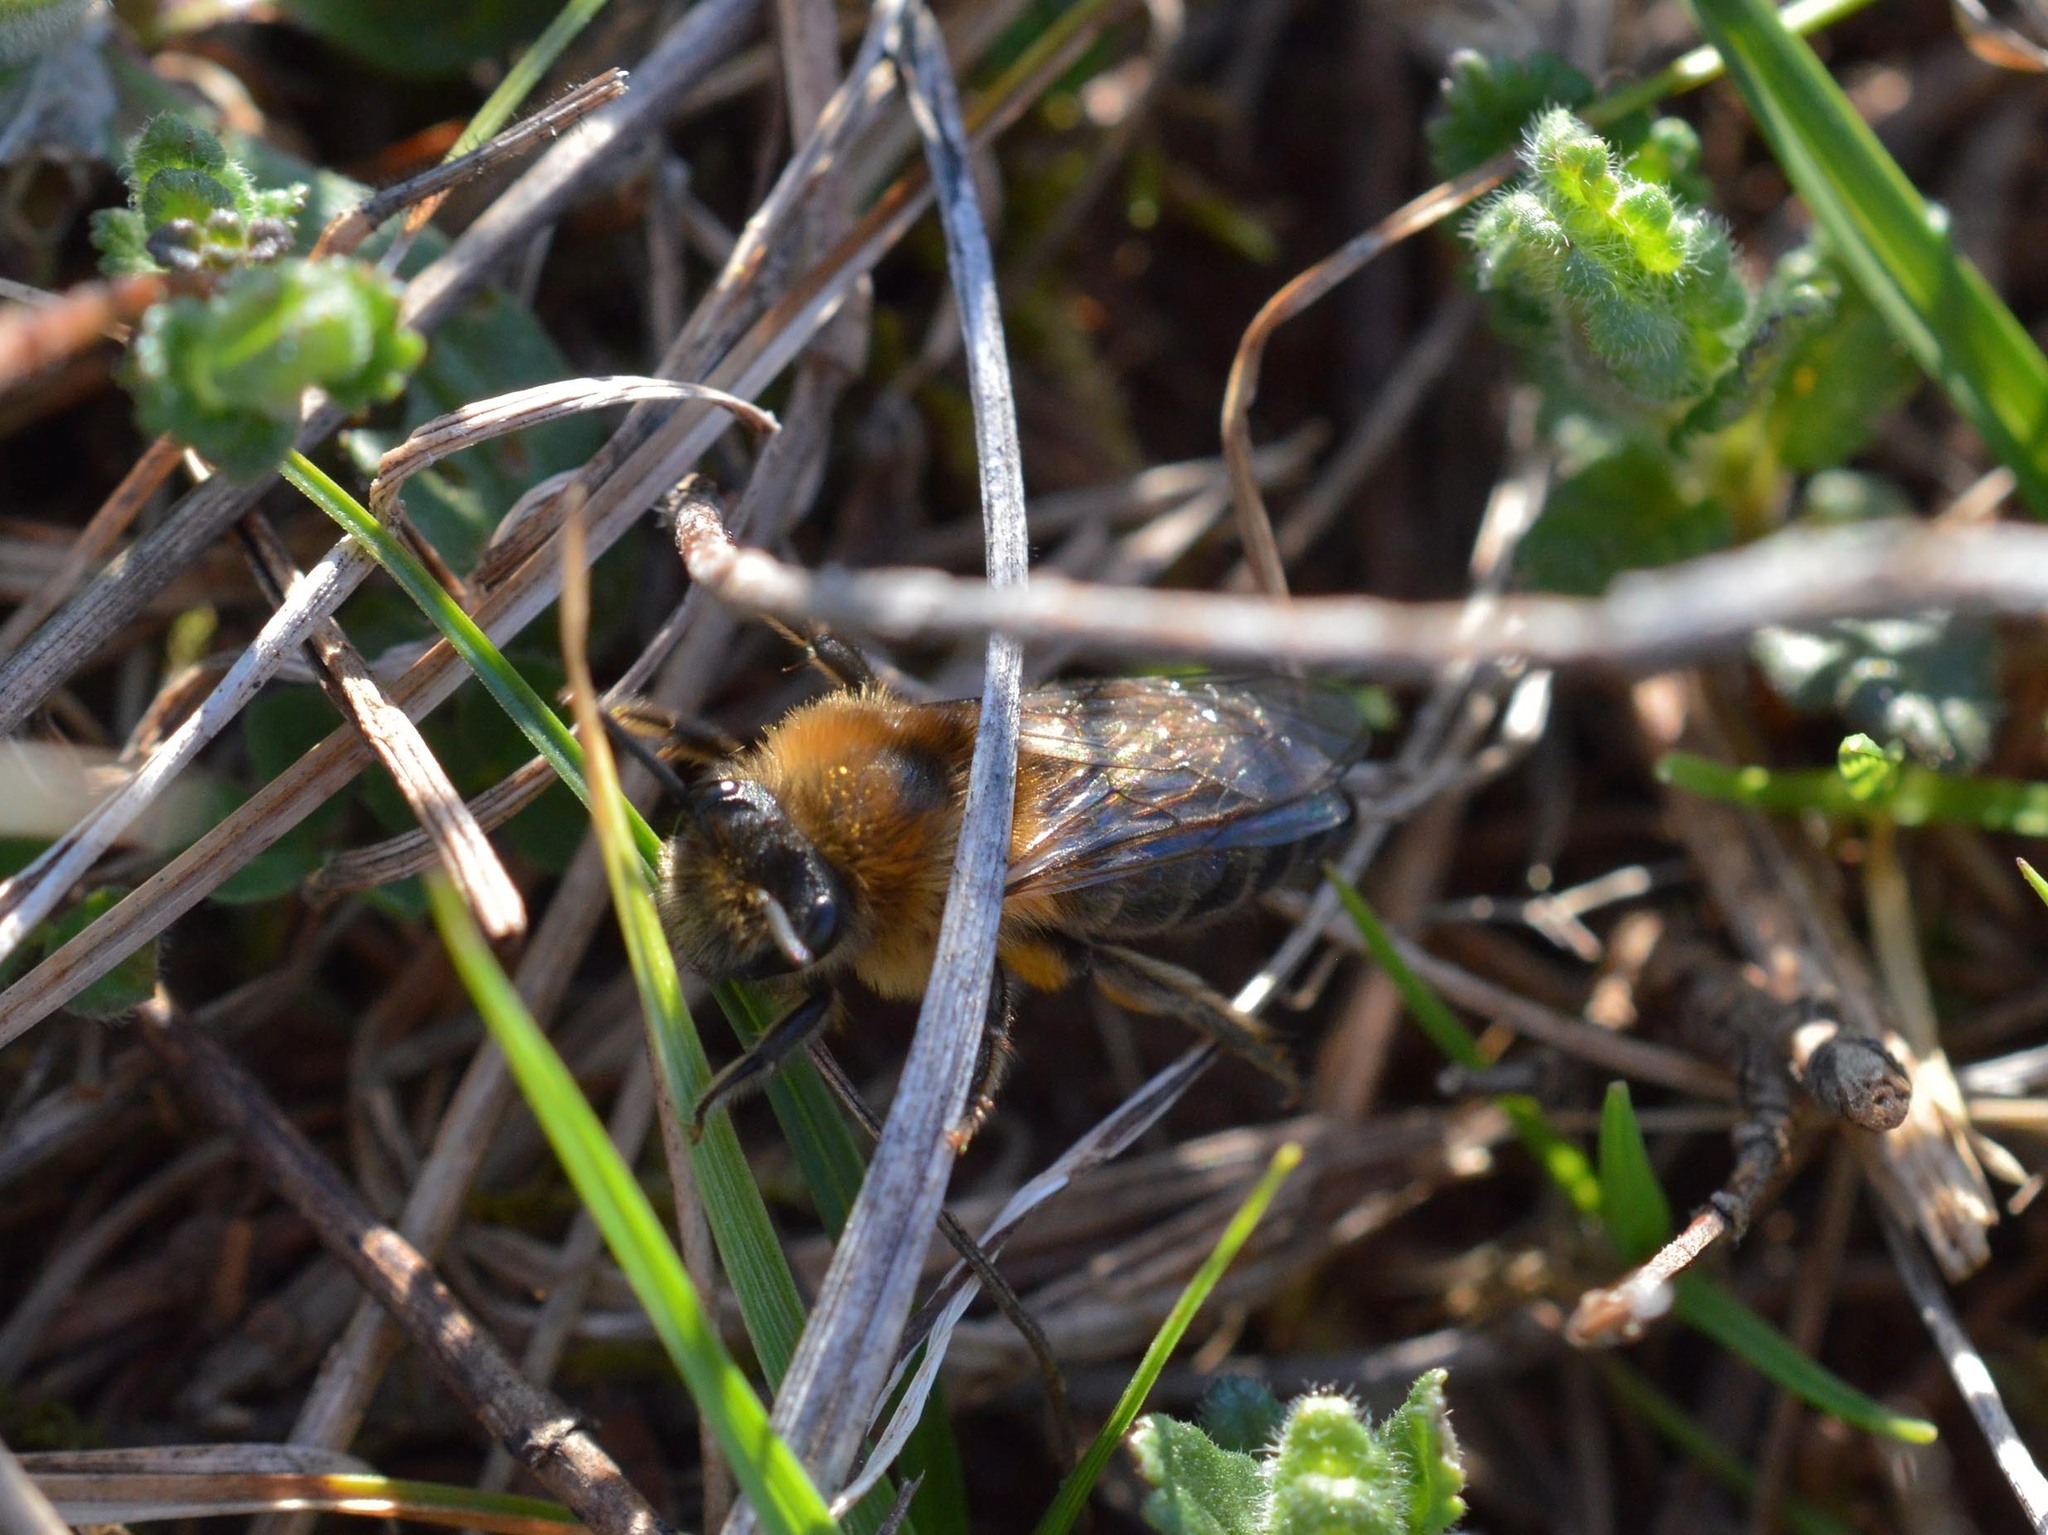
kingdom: Animalia
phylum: Arthropoda
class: Insecta
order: Hymenoptera
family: Colletidae
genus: Colletes
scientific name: Colletes cunicularius
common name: Early colletes
